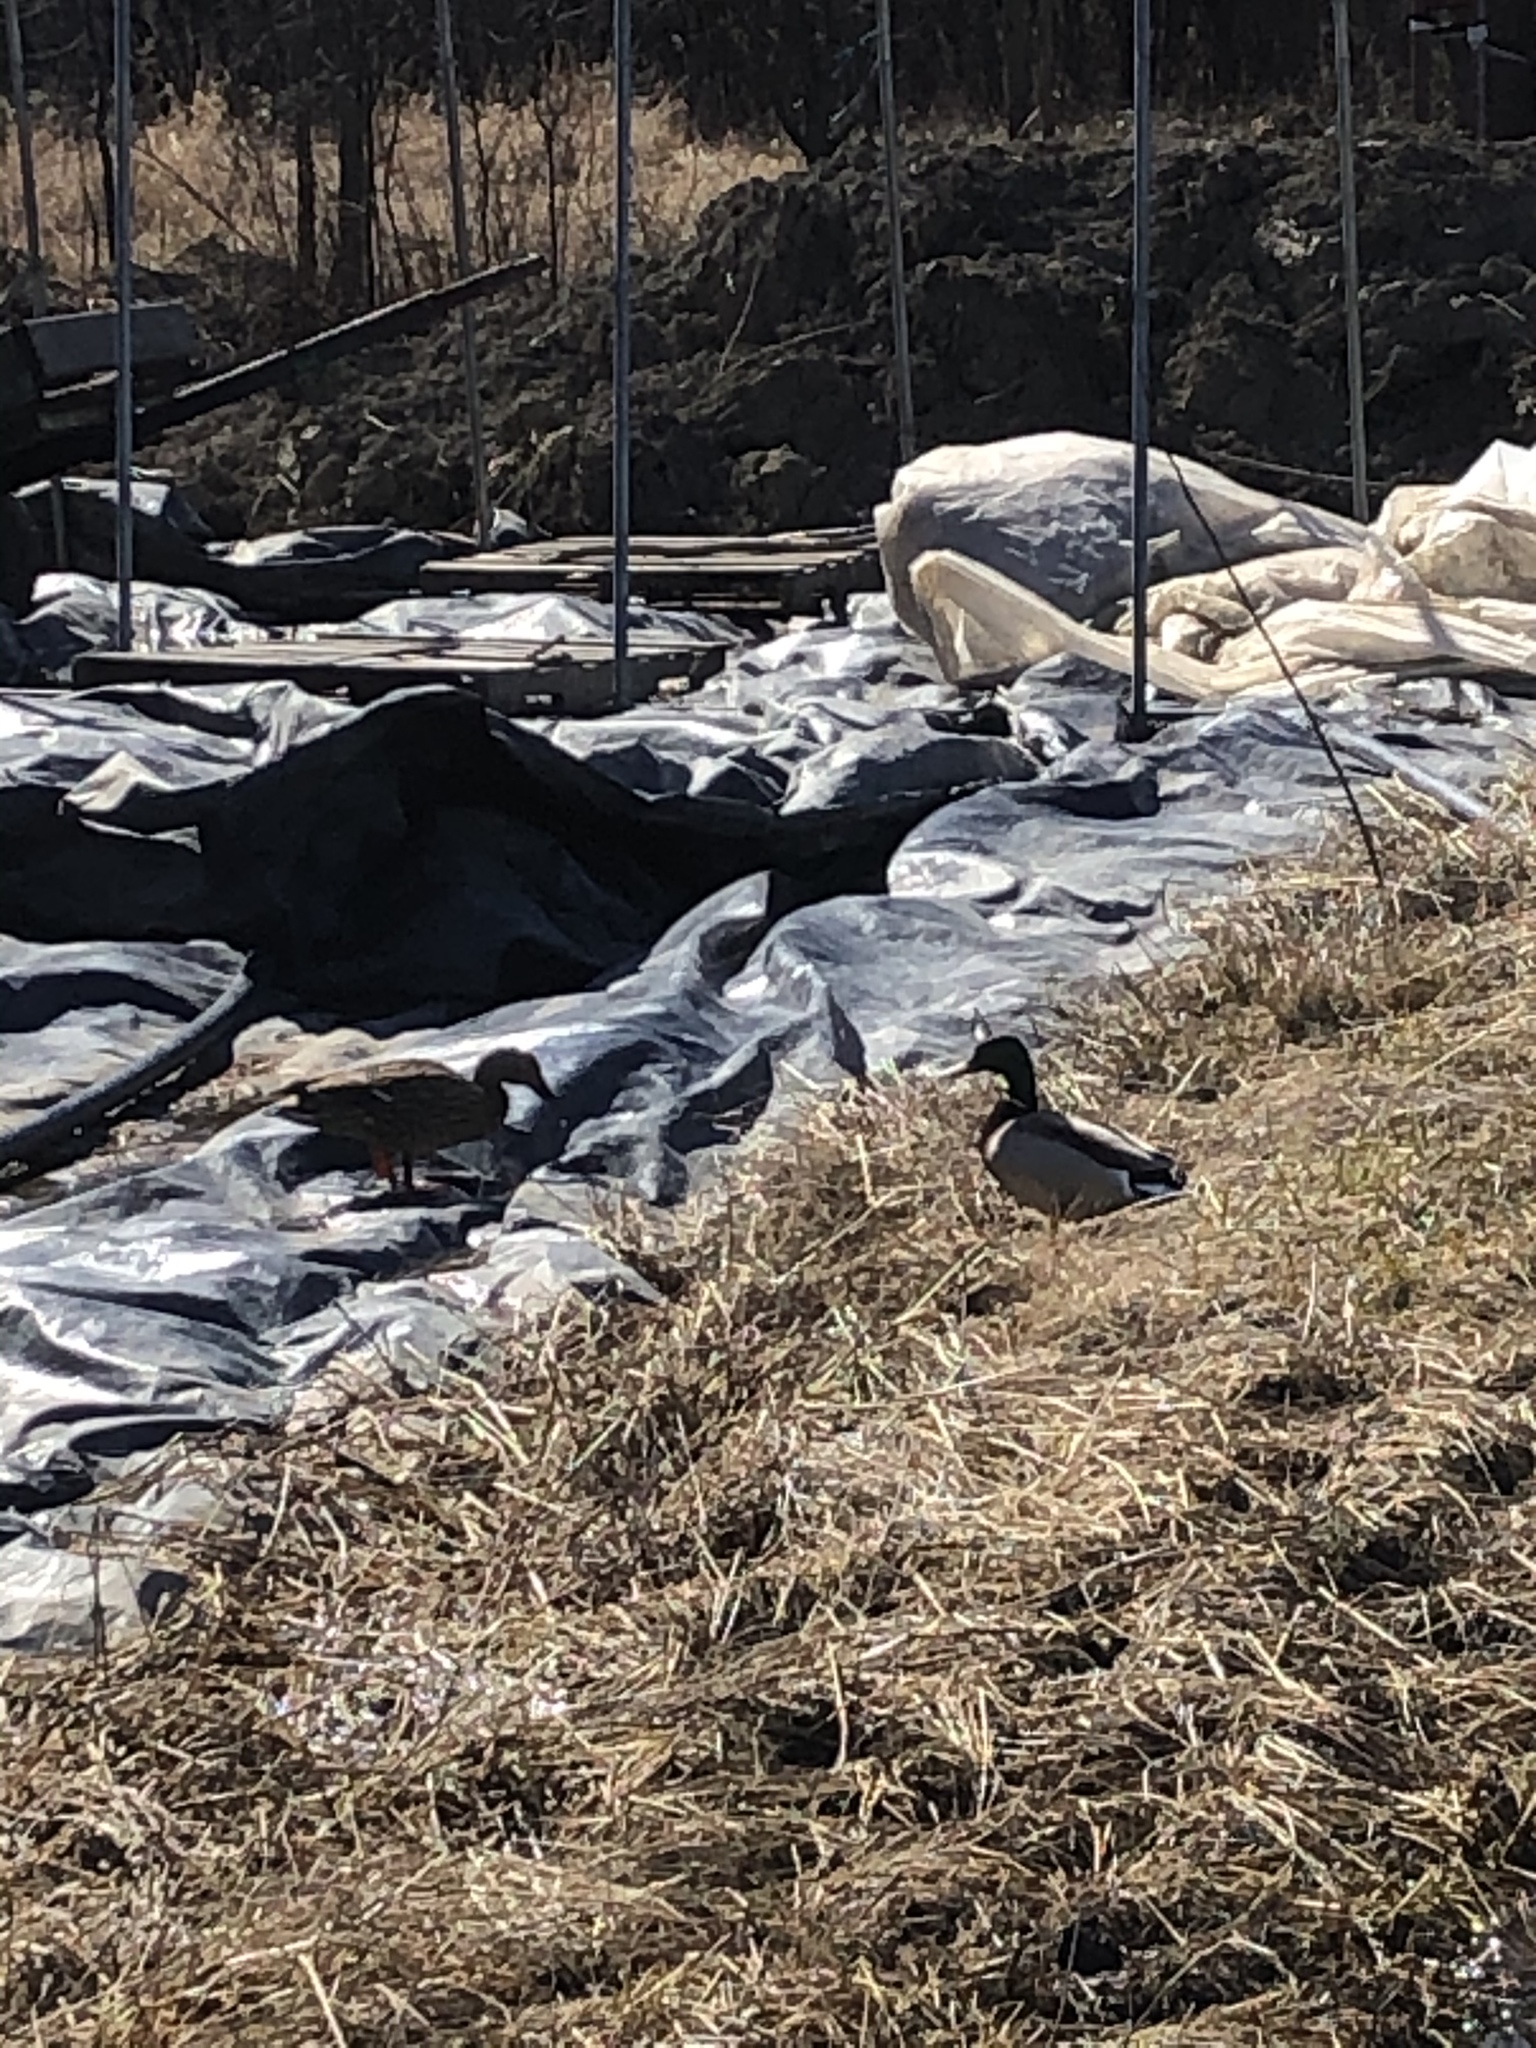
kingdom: Animalia
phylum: Chordata
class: Aves
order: Anseriformes
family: Anatidae
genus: Anas
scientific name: Anas platyrhynchos
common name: Mallard
